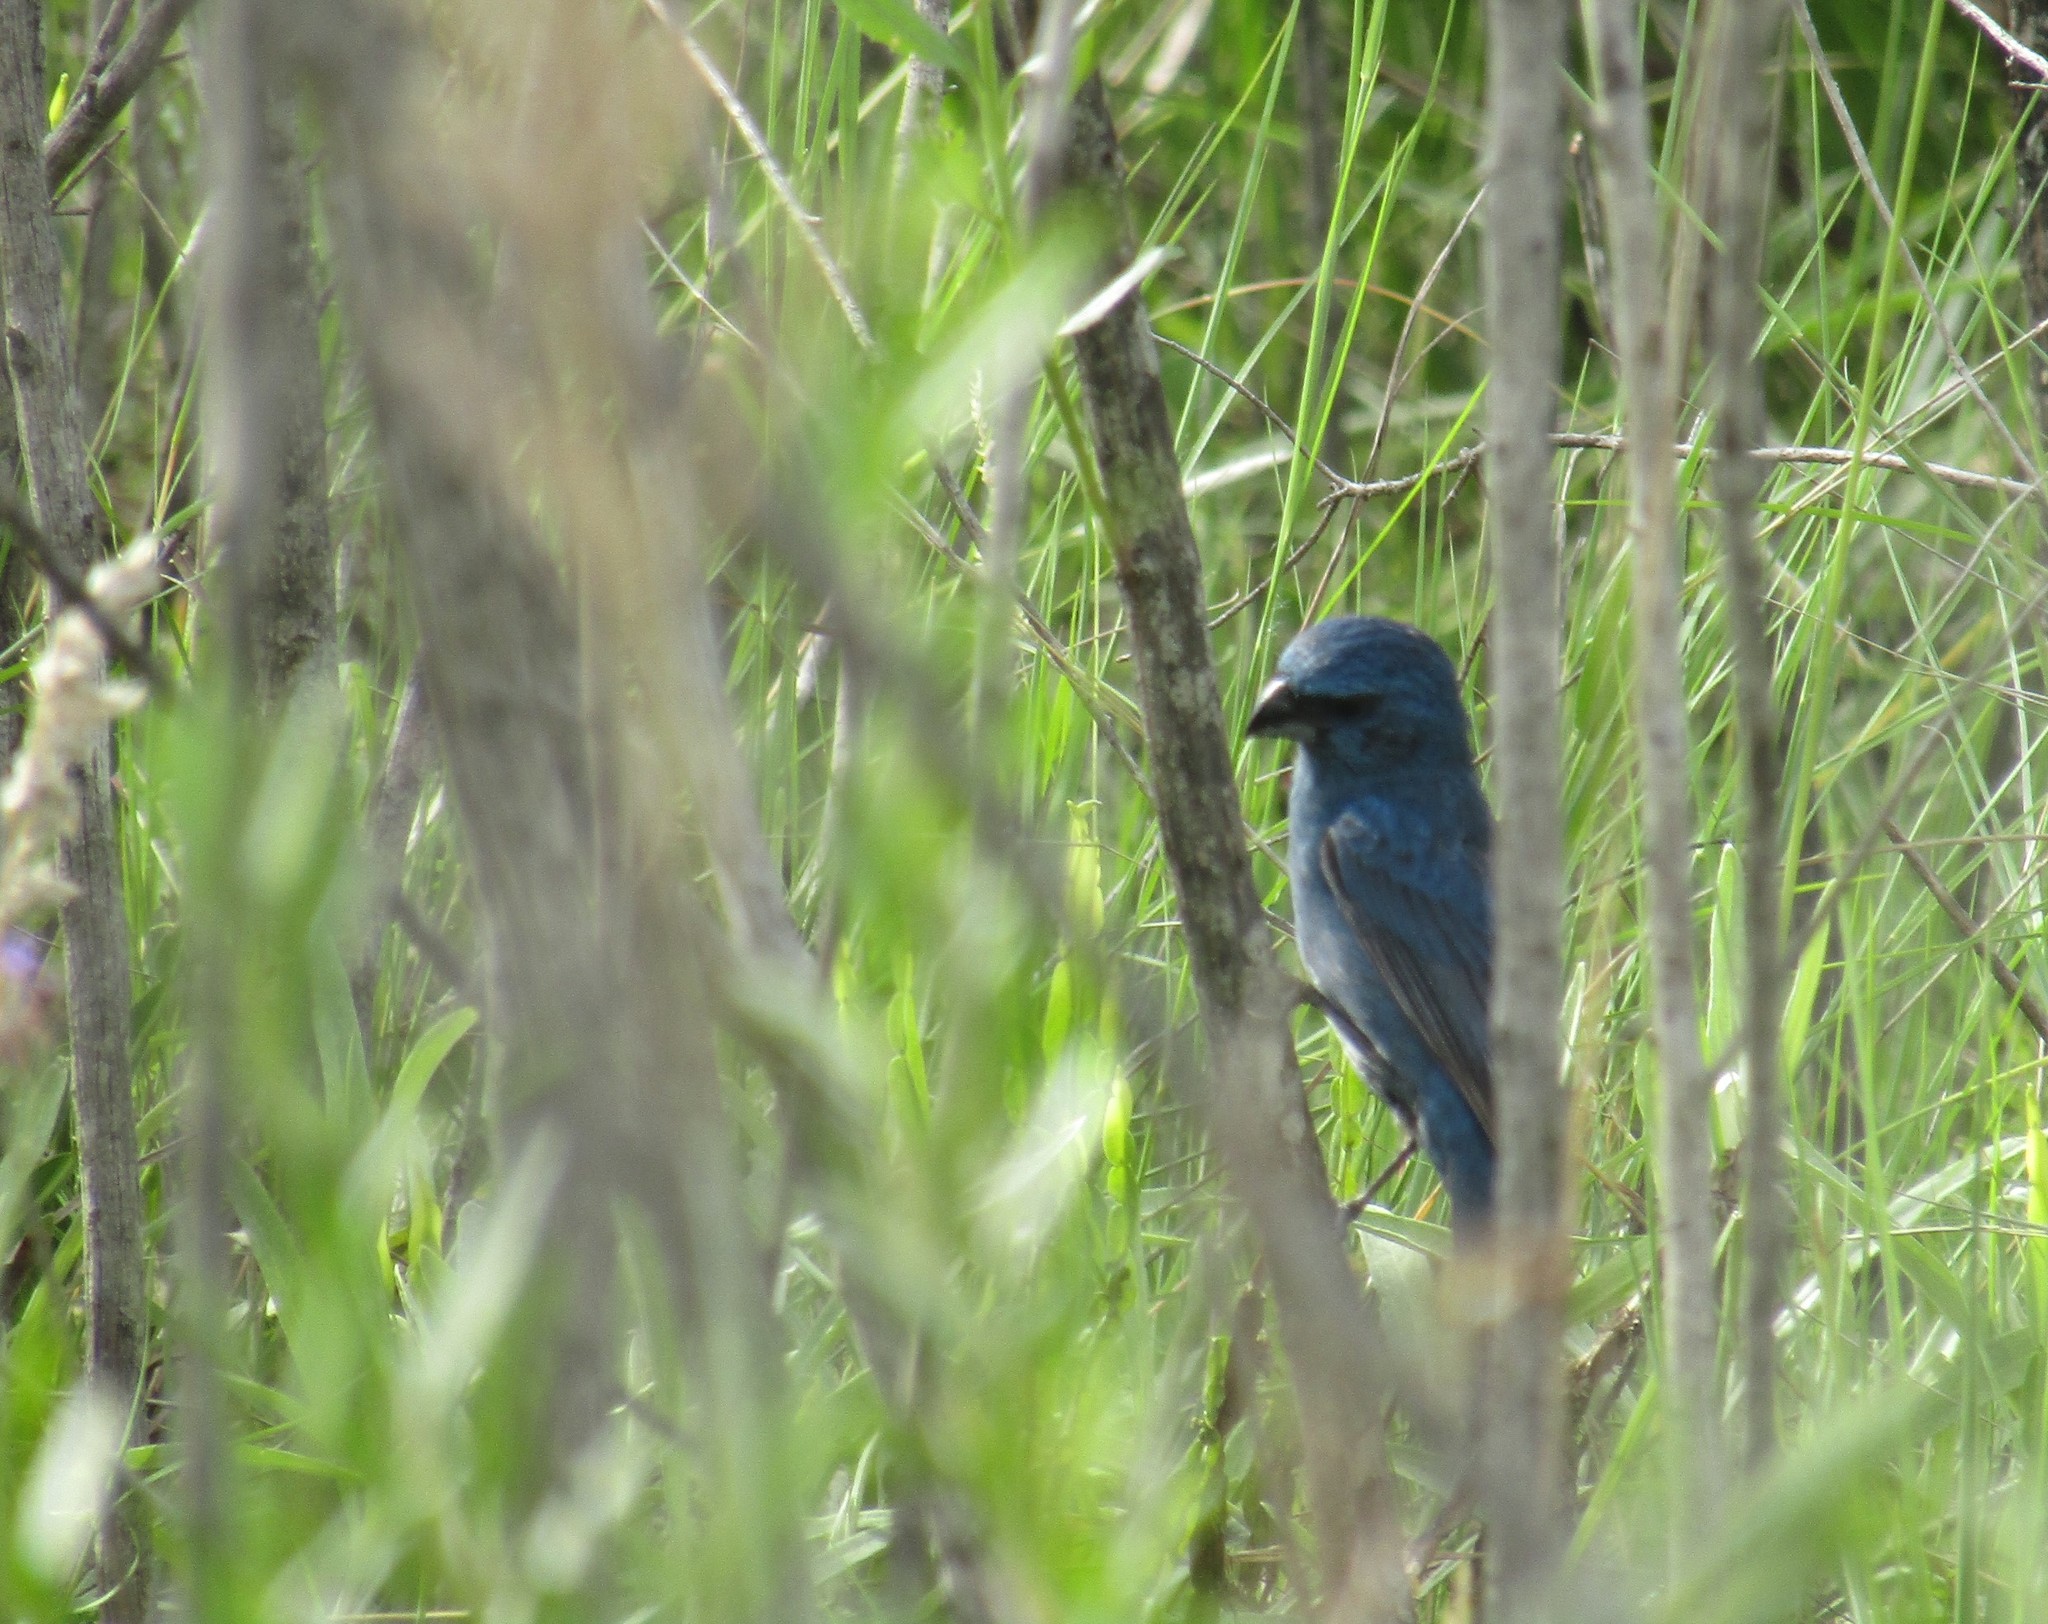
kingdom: Animalia
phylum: Chordata
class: Aves
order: Passeriformes
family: Cardinalidae
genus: Cyanoloxia
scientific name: Cyanoloxia glaucocaerulea
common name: Glaucous-blue grosbeak
